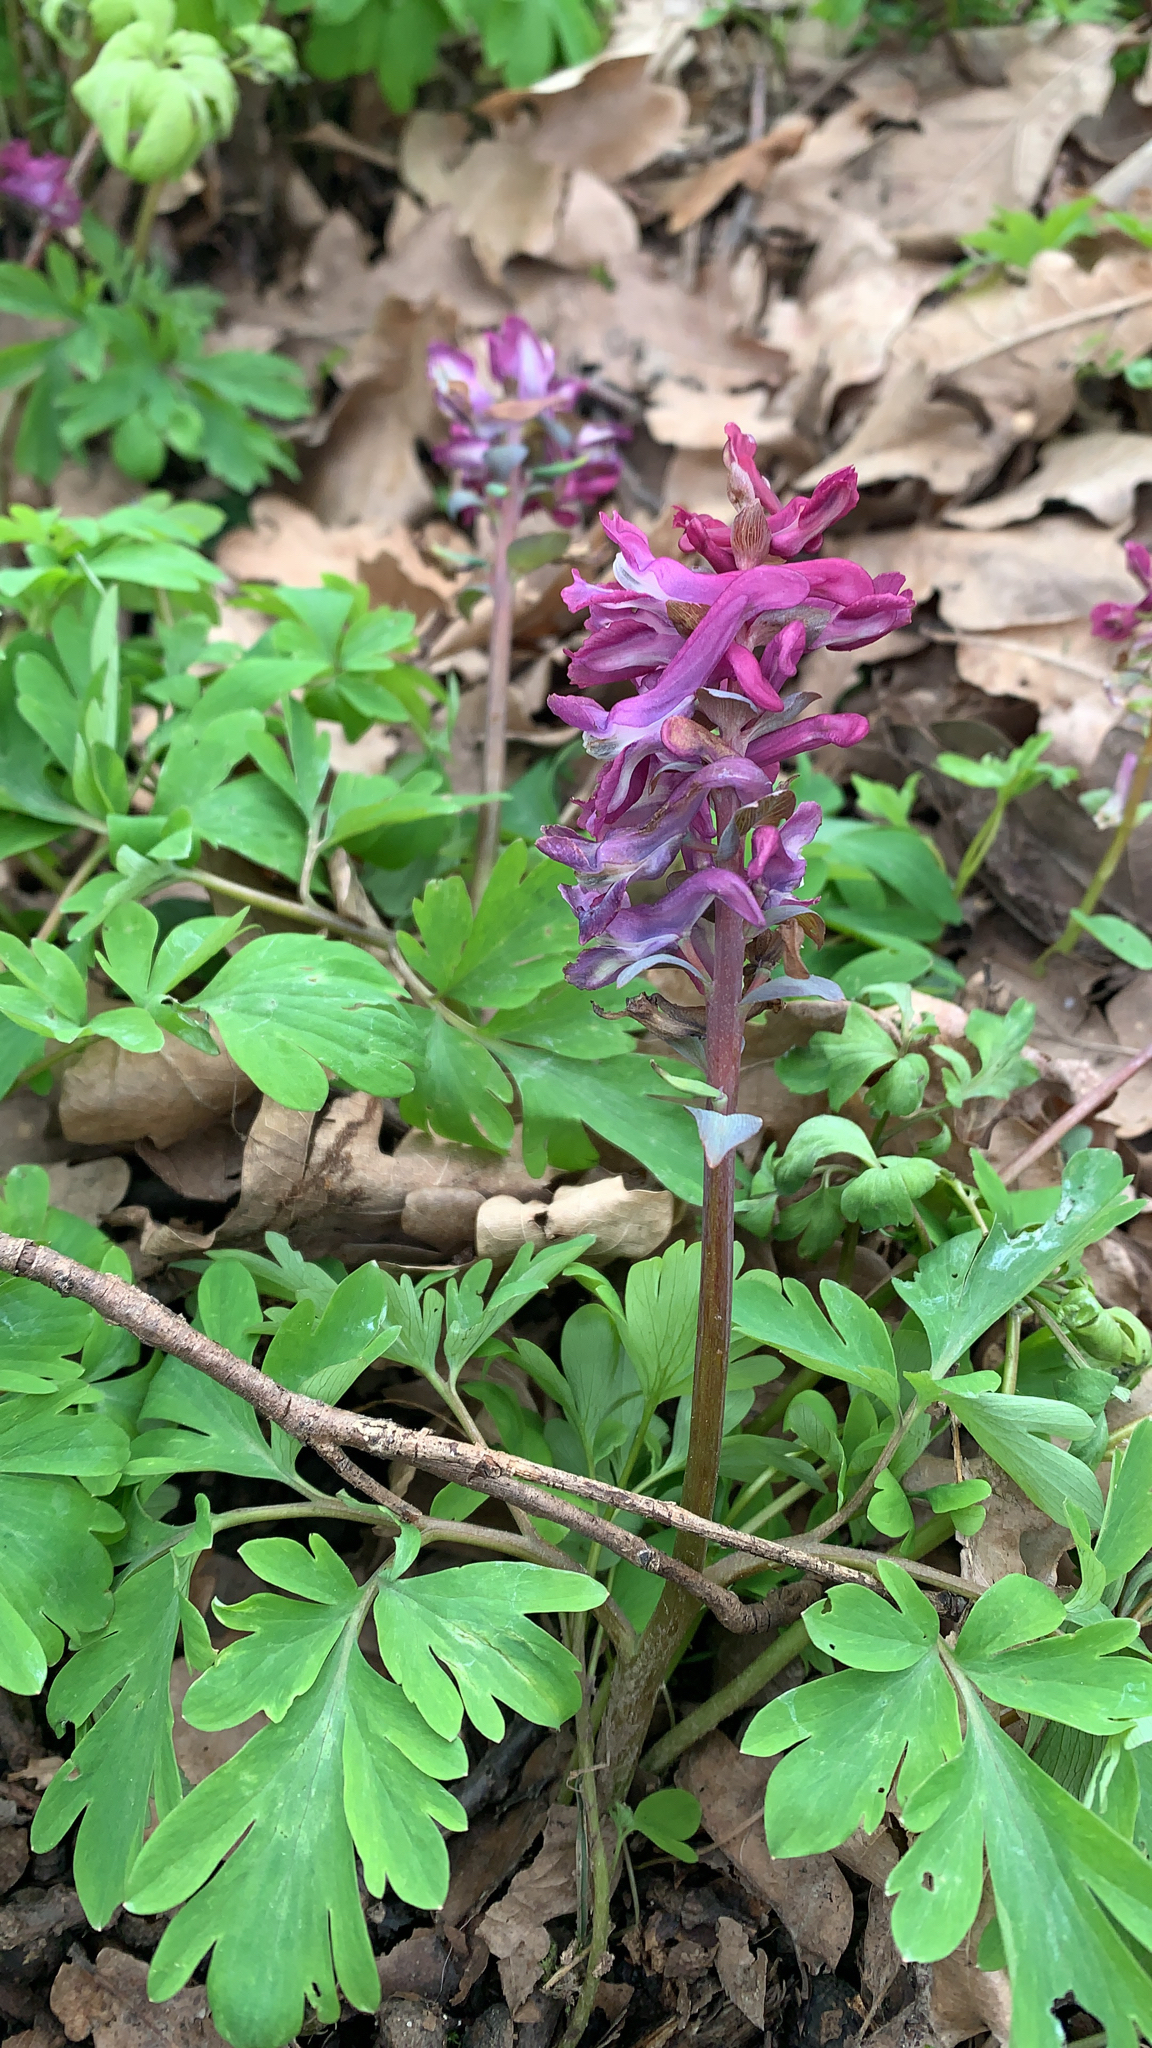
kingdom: Plantae
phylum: Tracheophyta
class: Magnoliopsida
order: Ranunculales
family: Papaveraceae
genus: Corydalis
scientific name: Corydalis cava
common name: Hollowroot
